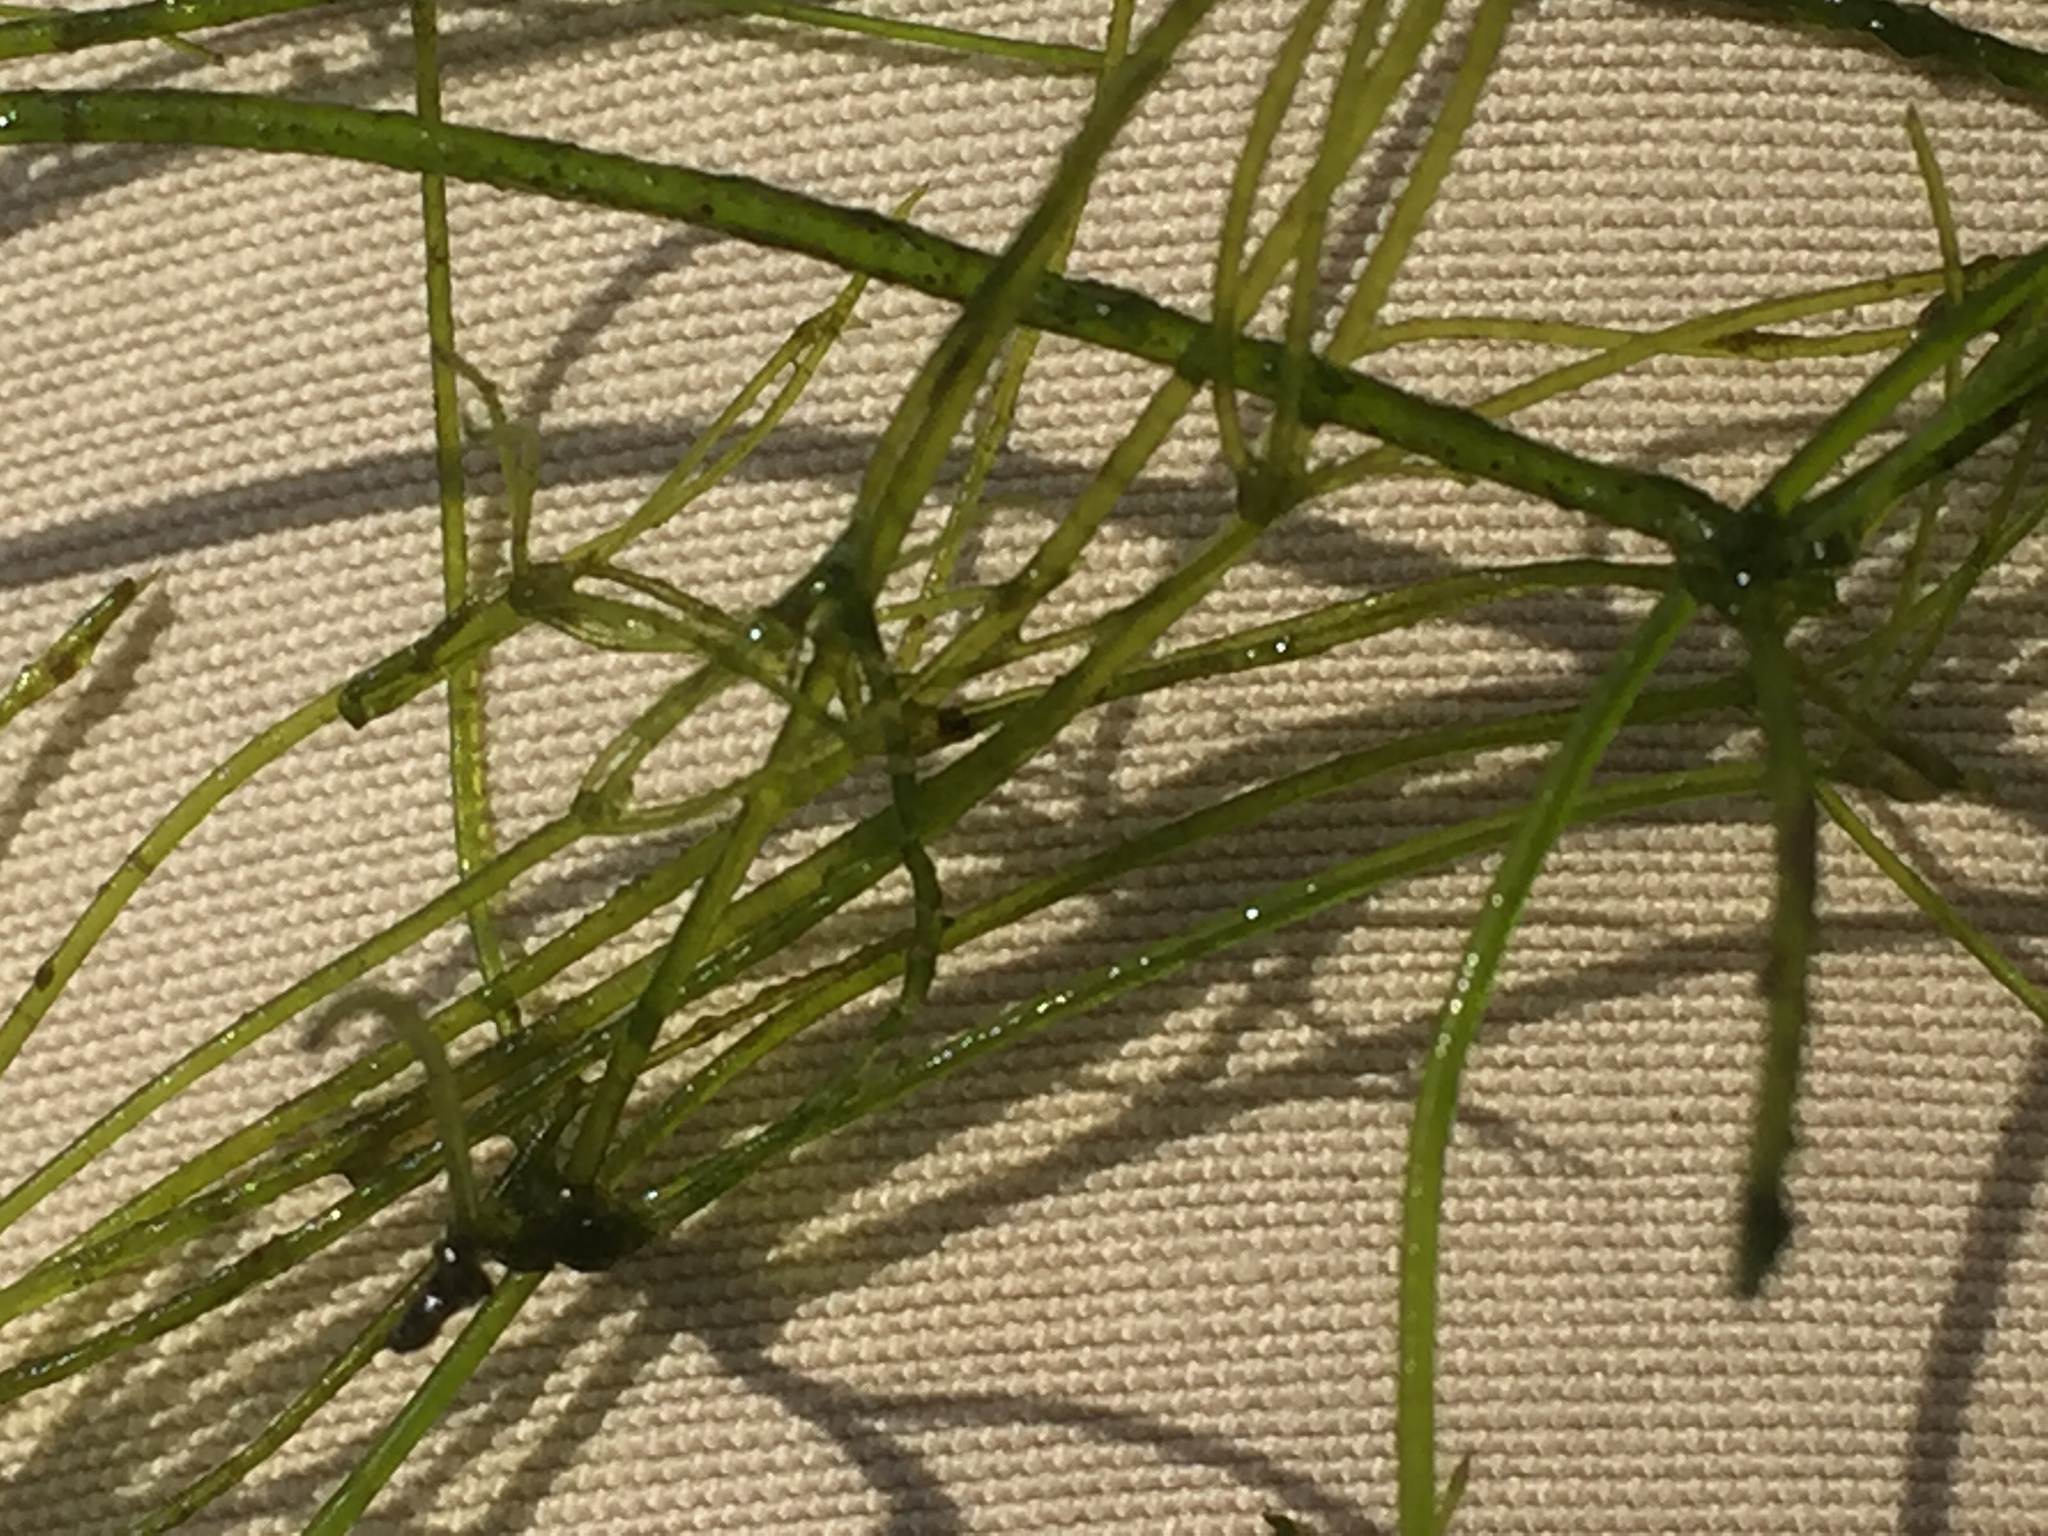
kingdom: Plantae
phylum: Charophyta
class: Charophyceae
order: Charales
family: Characeae
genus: Nitella
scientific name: Nitella translucens
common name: Translucent stonewort
